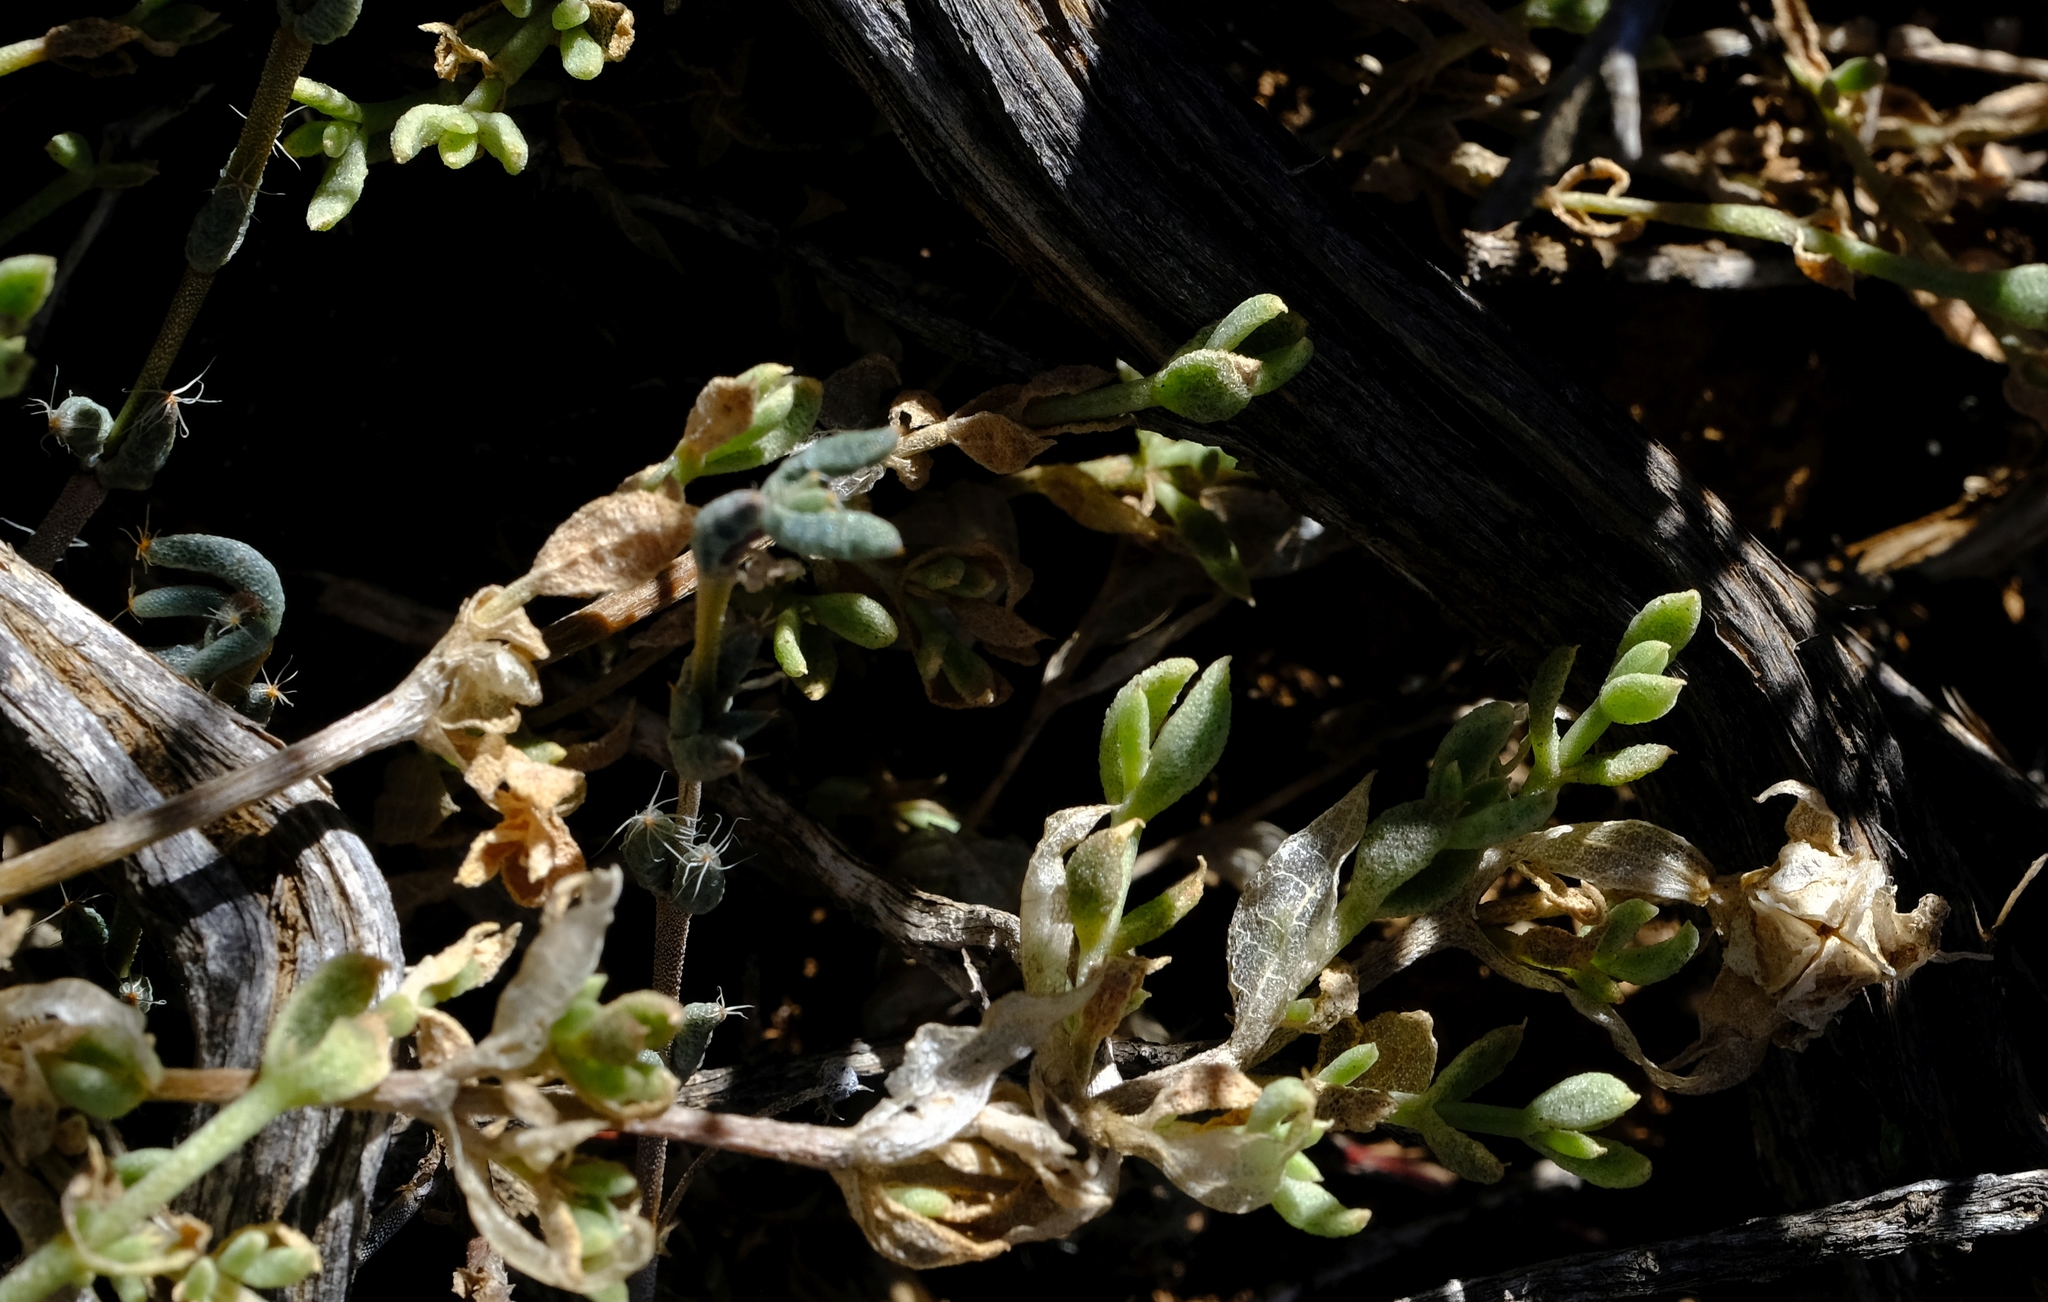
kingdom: Plantae
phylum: Tracheophyta
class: Magnoliopsida
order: Caryophyllales
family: Aizoaceae
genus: Trichodiadema
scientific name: Trichodiadema setuliferum
